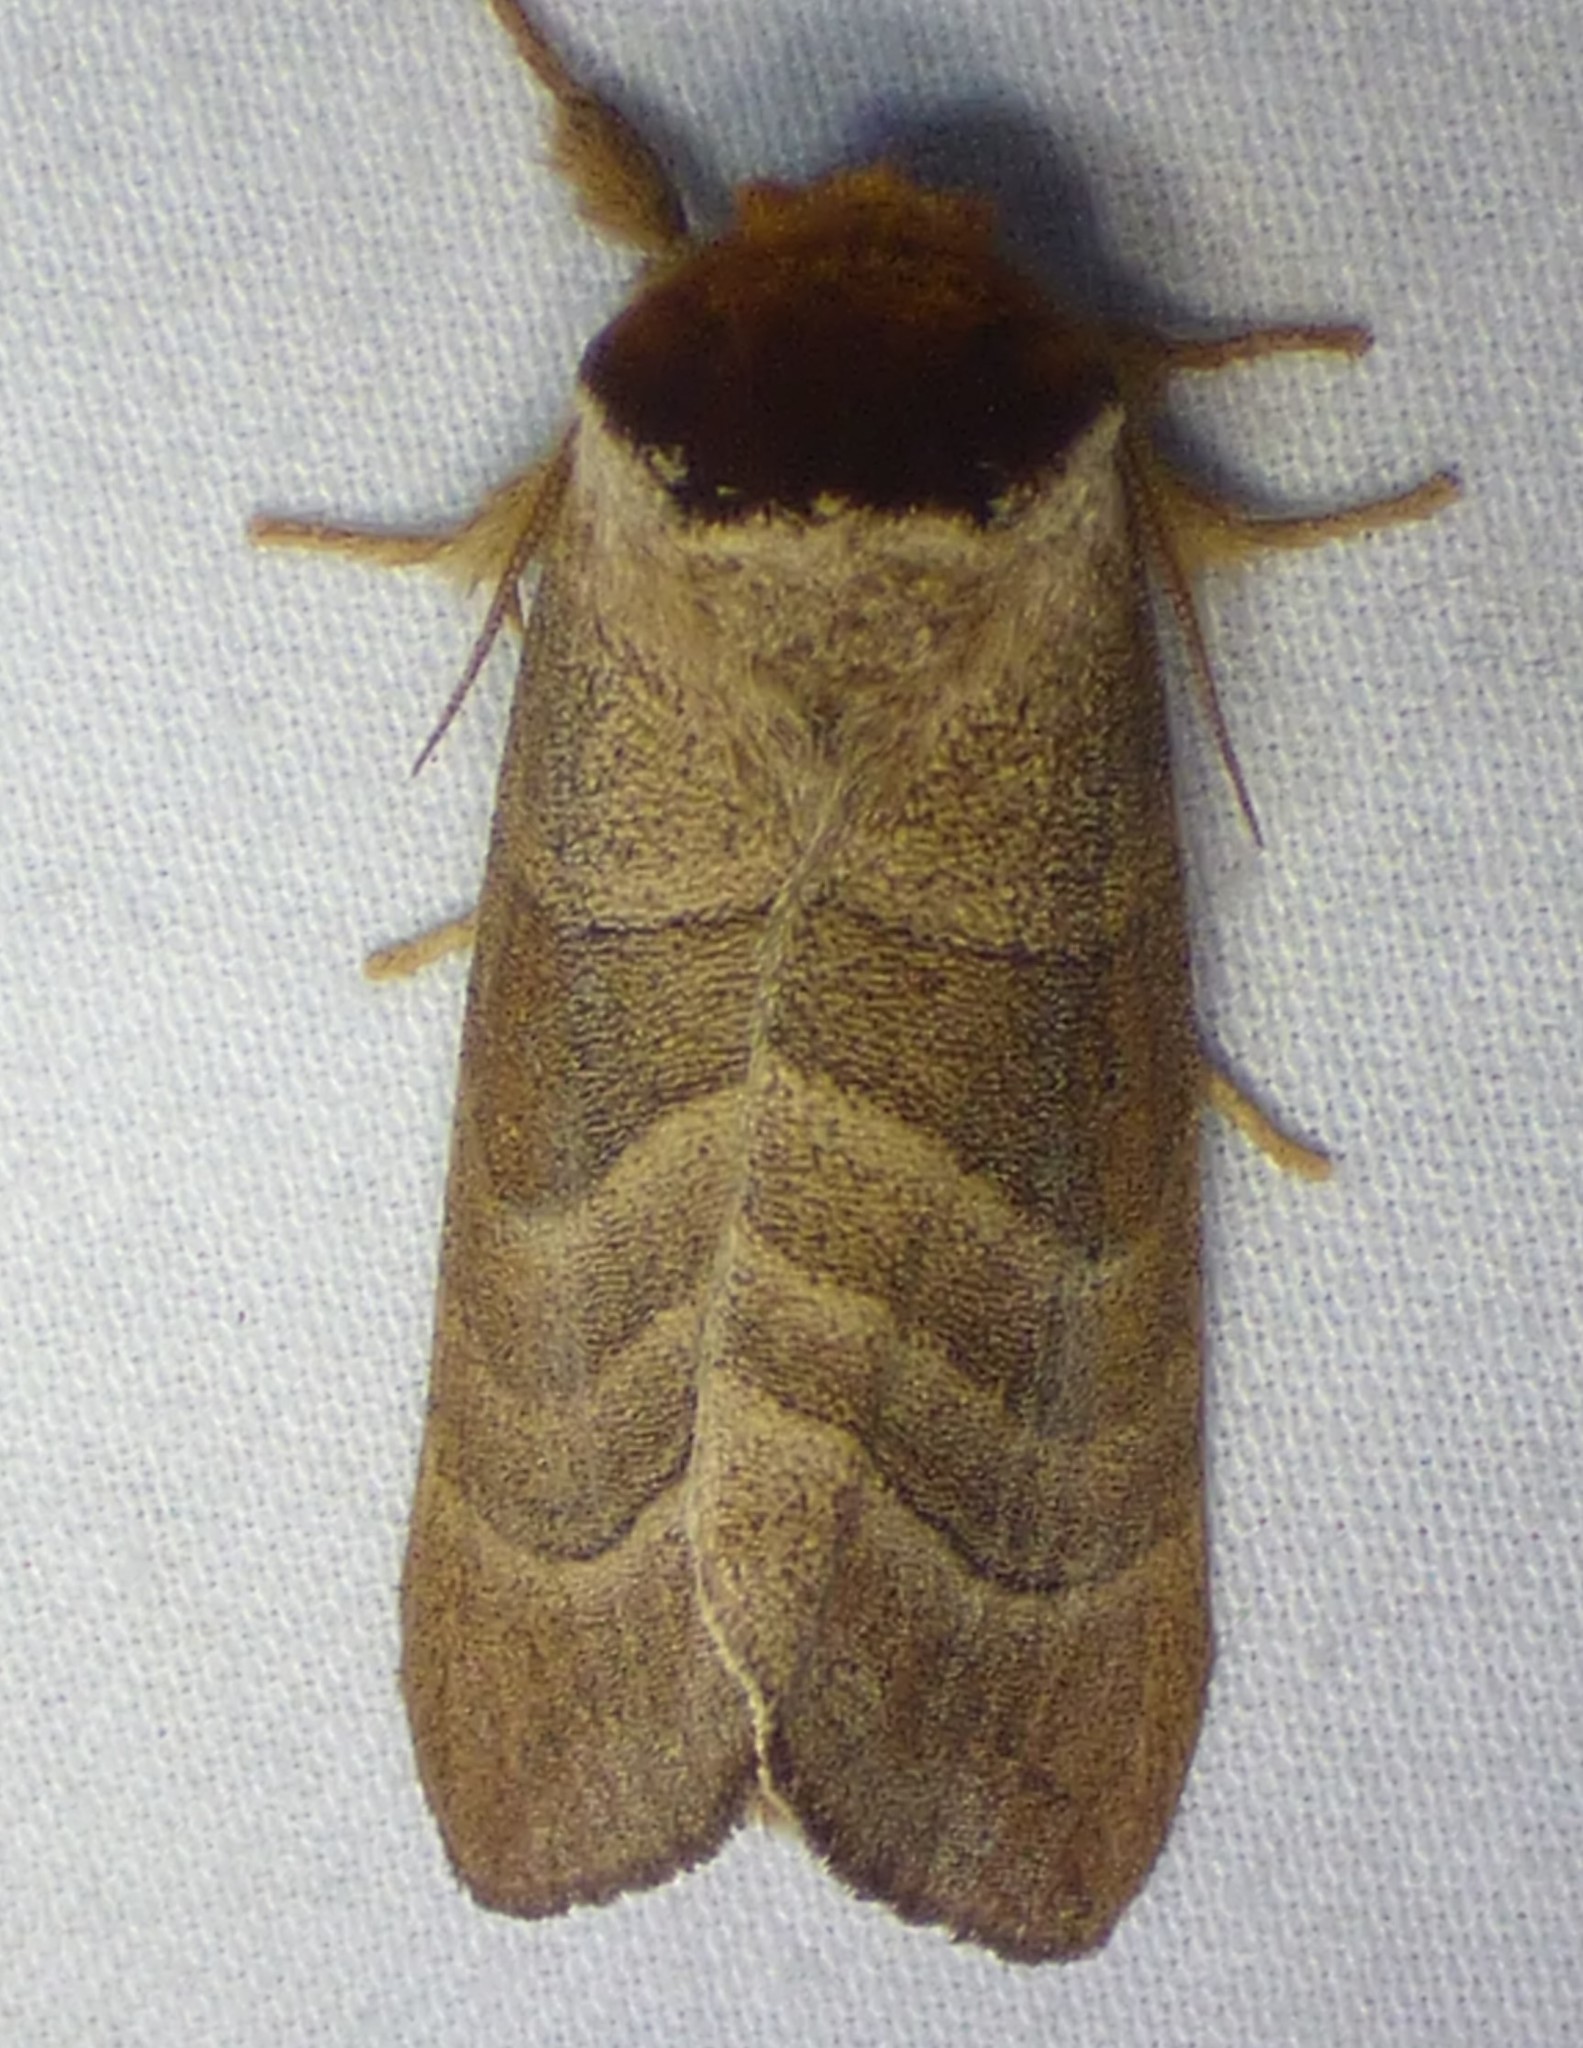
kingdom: Animalia
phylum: Arthropoda
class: Insecta
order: Lepidoptera
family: Notodontidae
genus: Datana
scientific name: Datana integerrima
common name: Walnut caterpillar
